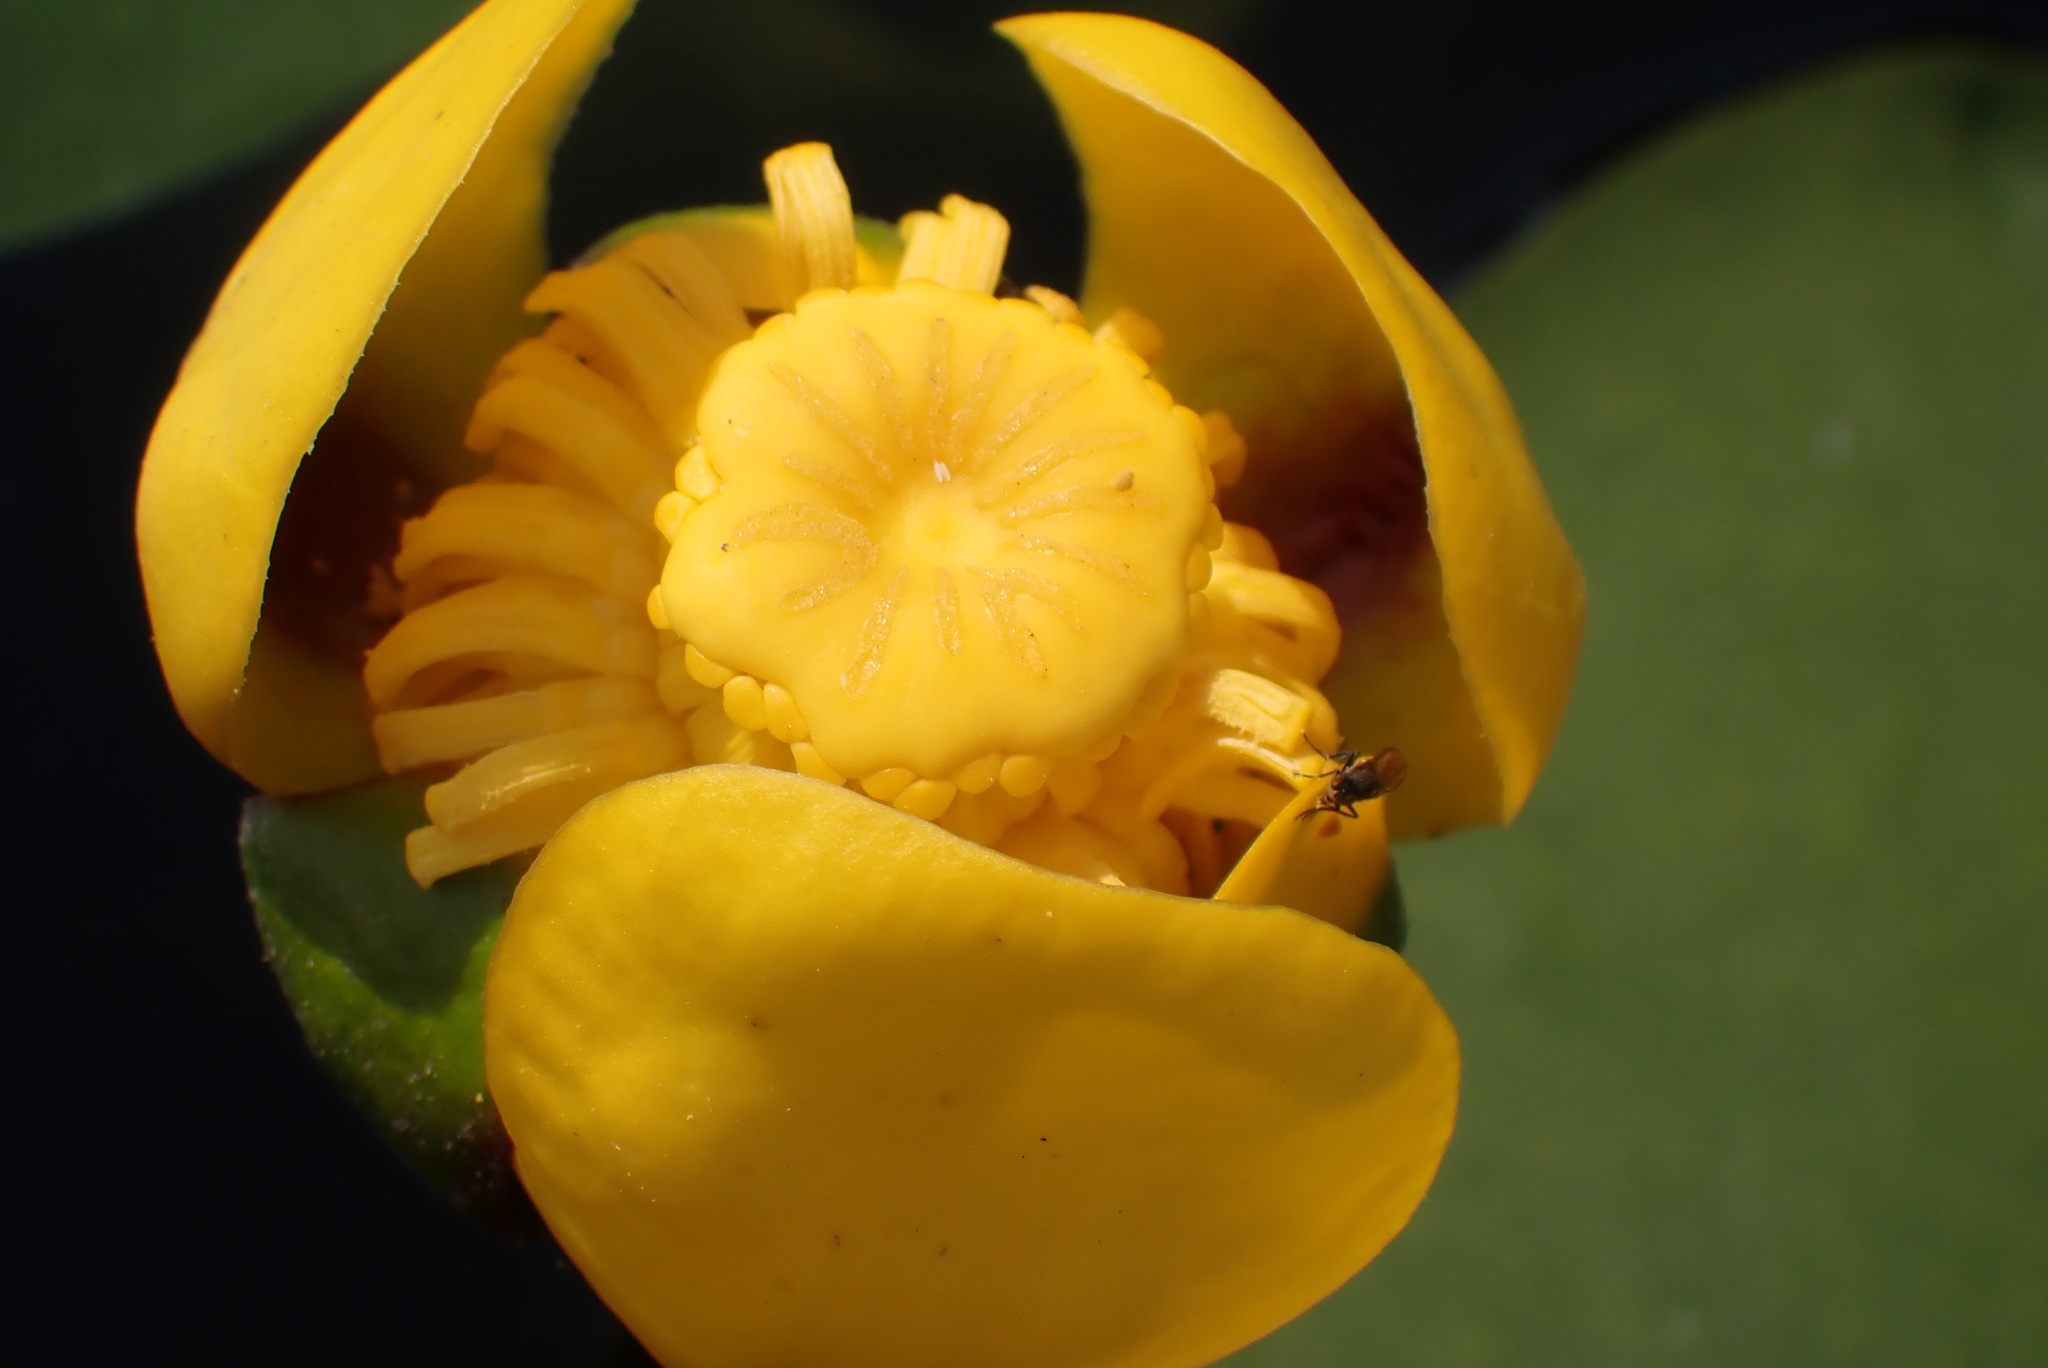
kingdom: Plantae
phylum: Tracheophyta
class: Magnoliopsida
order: Nymphaeales
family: Nymphaeaceae
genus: Nuphar
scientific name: Nuphar variegata
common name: Beaver-root
